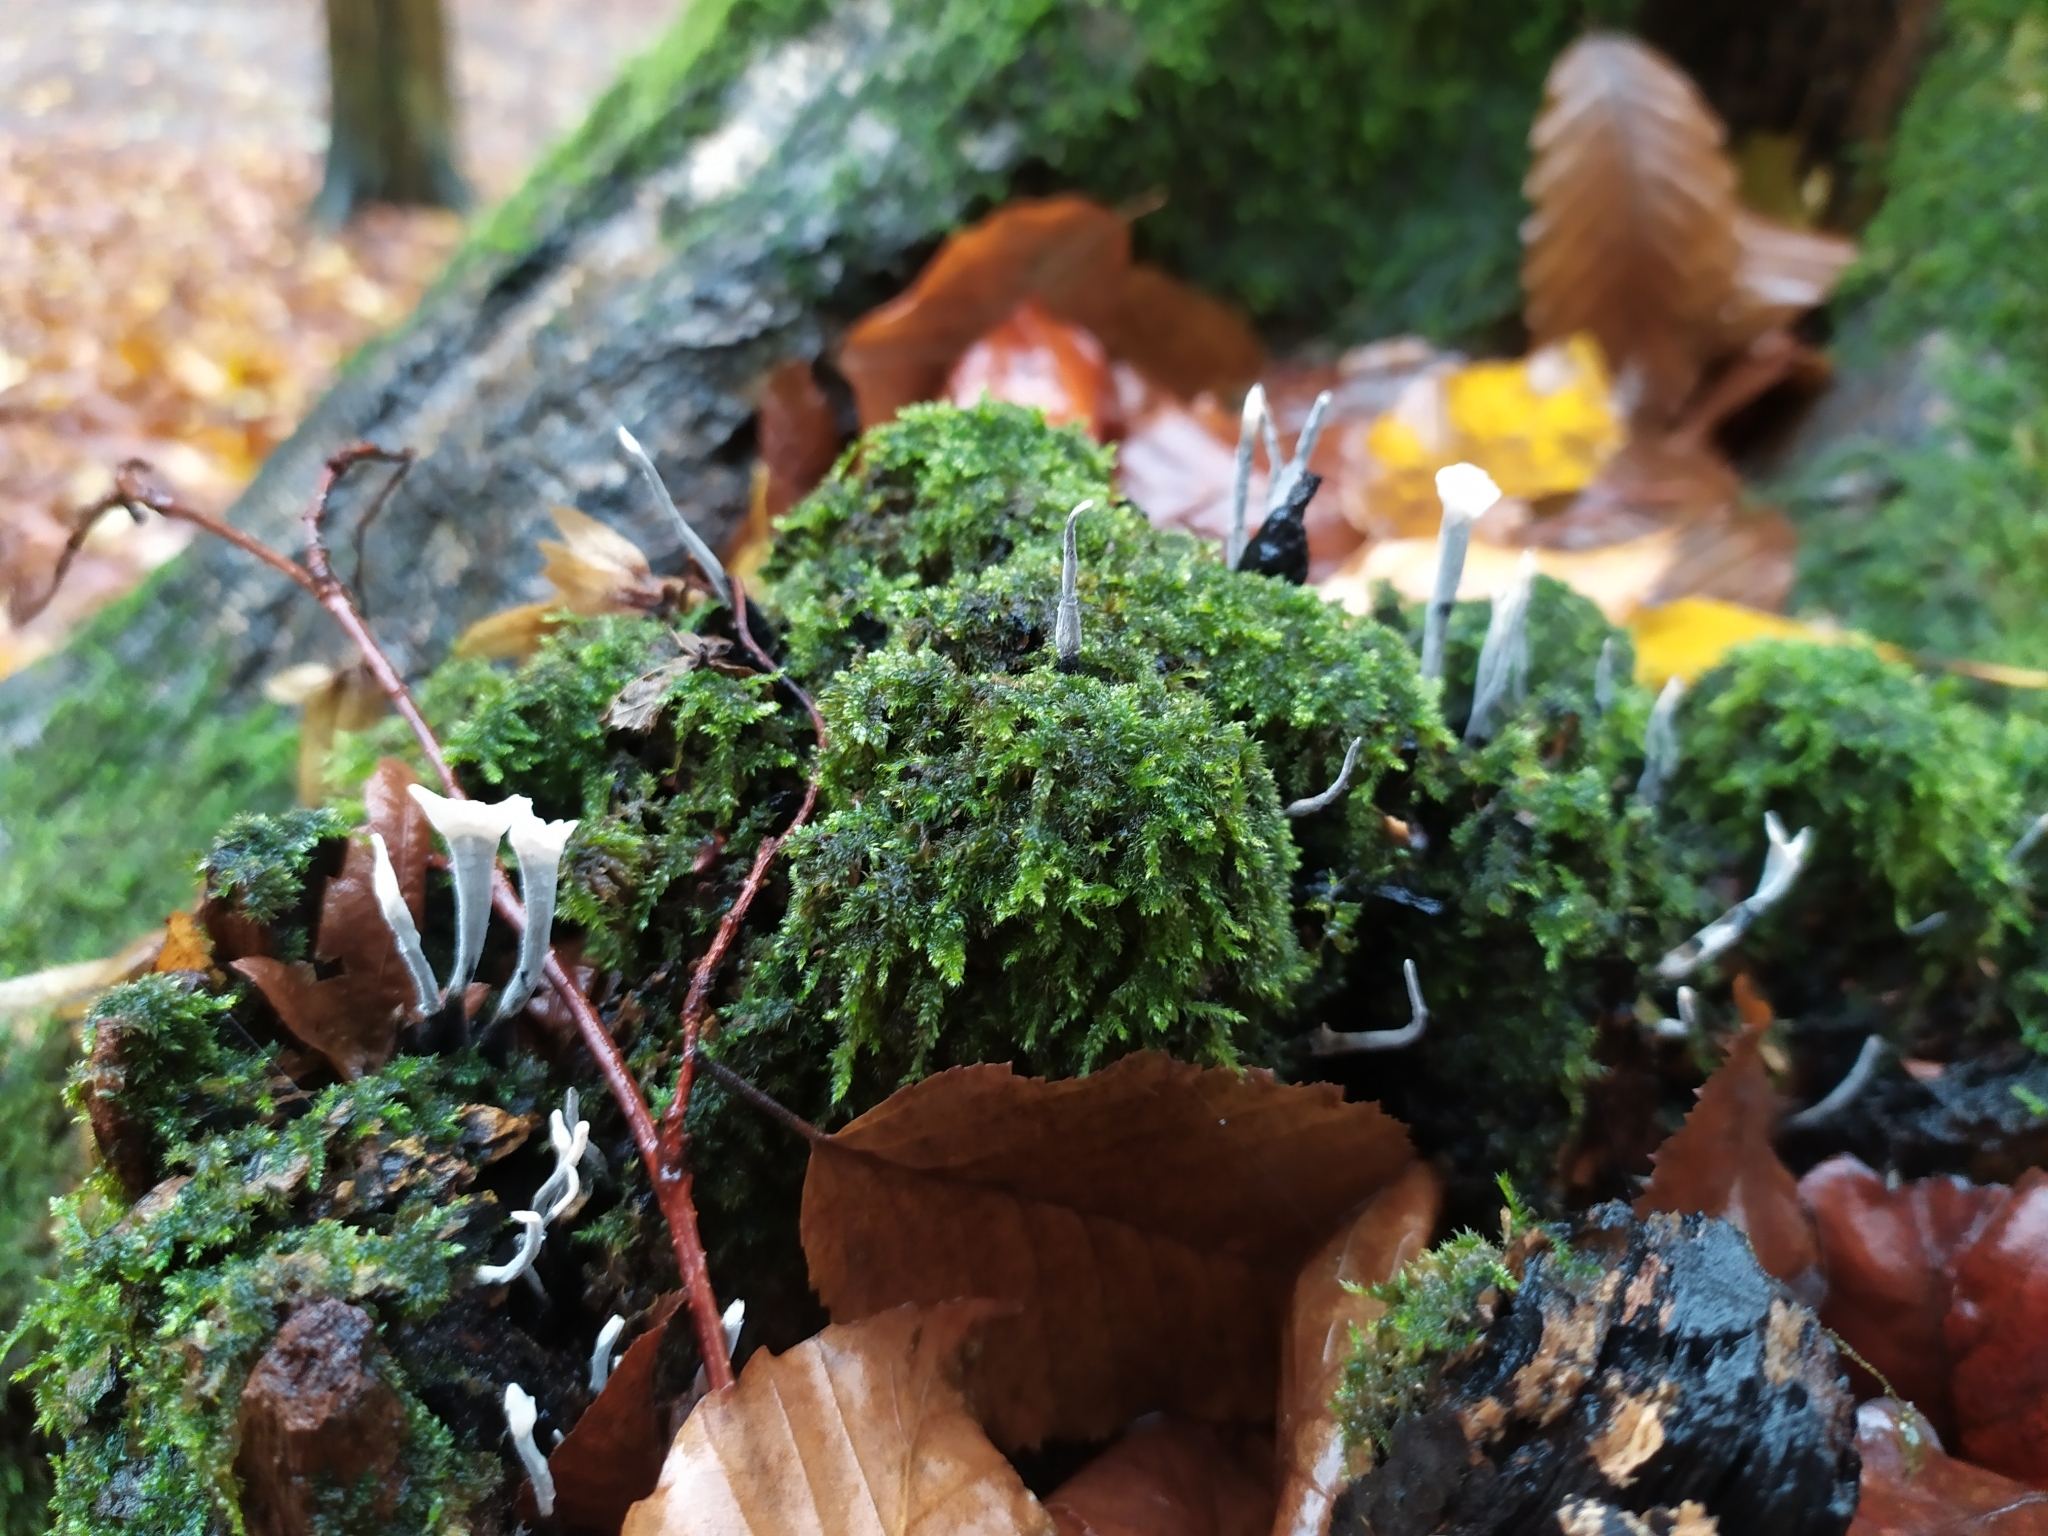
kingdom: Fungi
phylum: Ascomycota
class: Sordariomycetes
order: Xylariales
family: Xylariaceae
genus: Xylaria
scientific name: Xylaria hypoxylon
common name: Candle-snuff fungus
